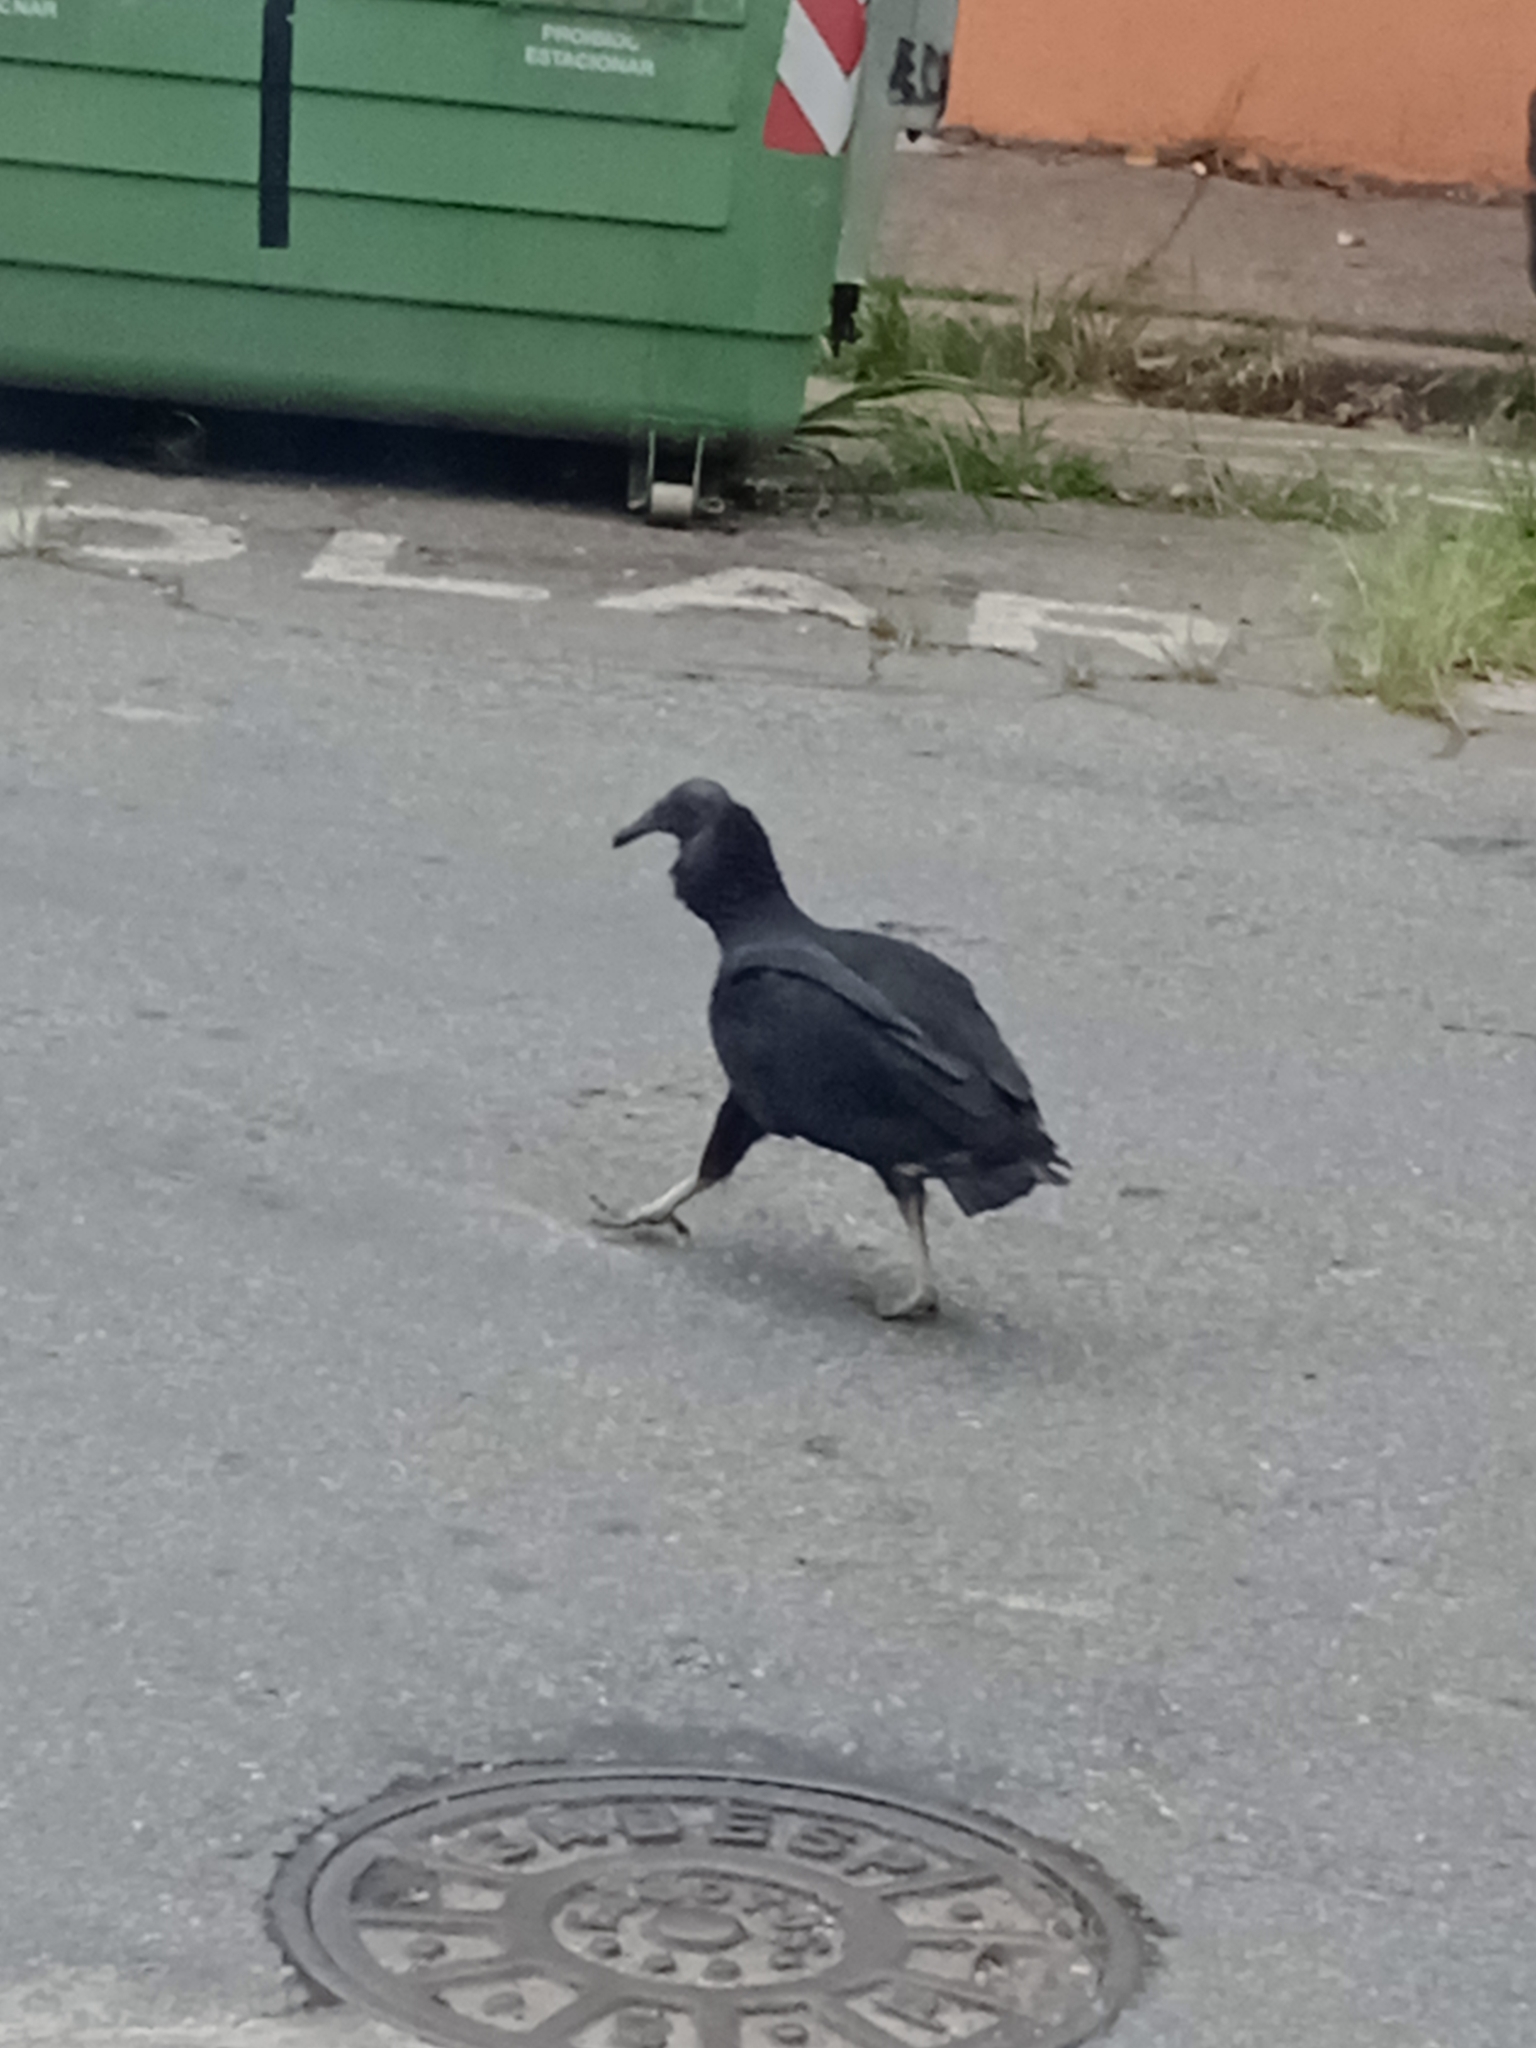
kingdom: Animalia
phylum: Chordata
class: Aves
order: Accipitriformes
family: Cathartidae
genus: Coragyps
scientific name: Coragyps atratus
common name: Black vulture
